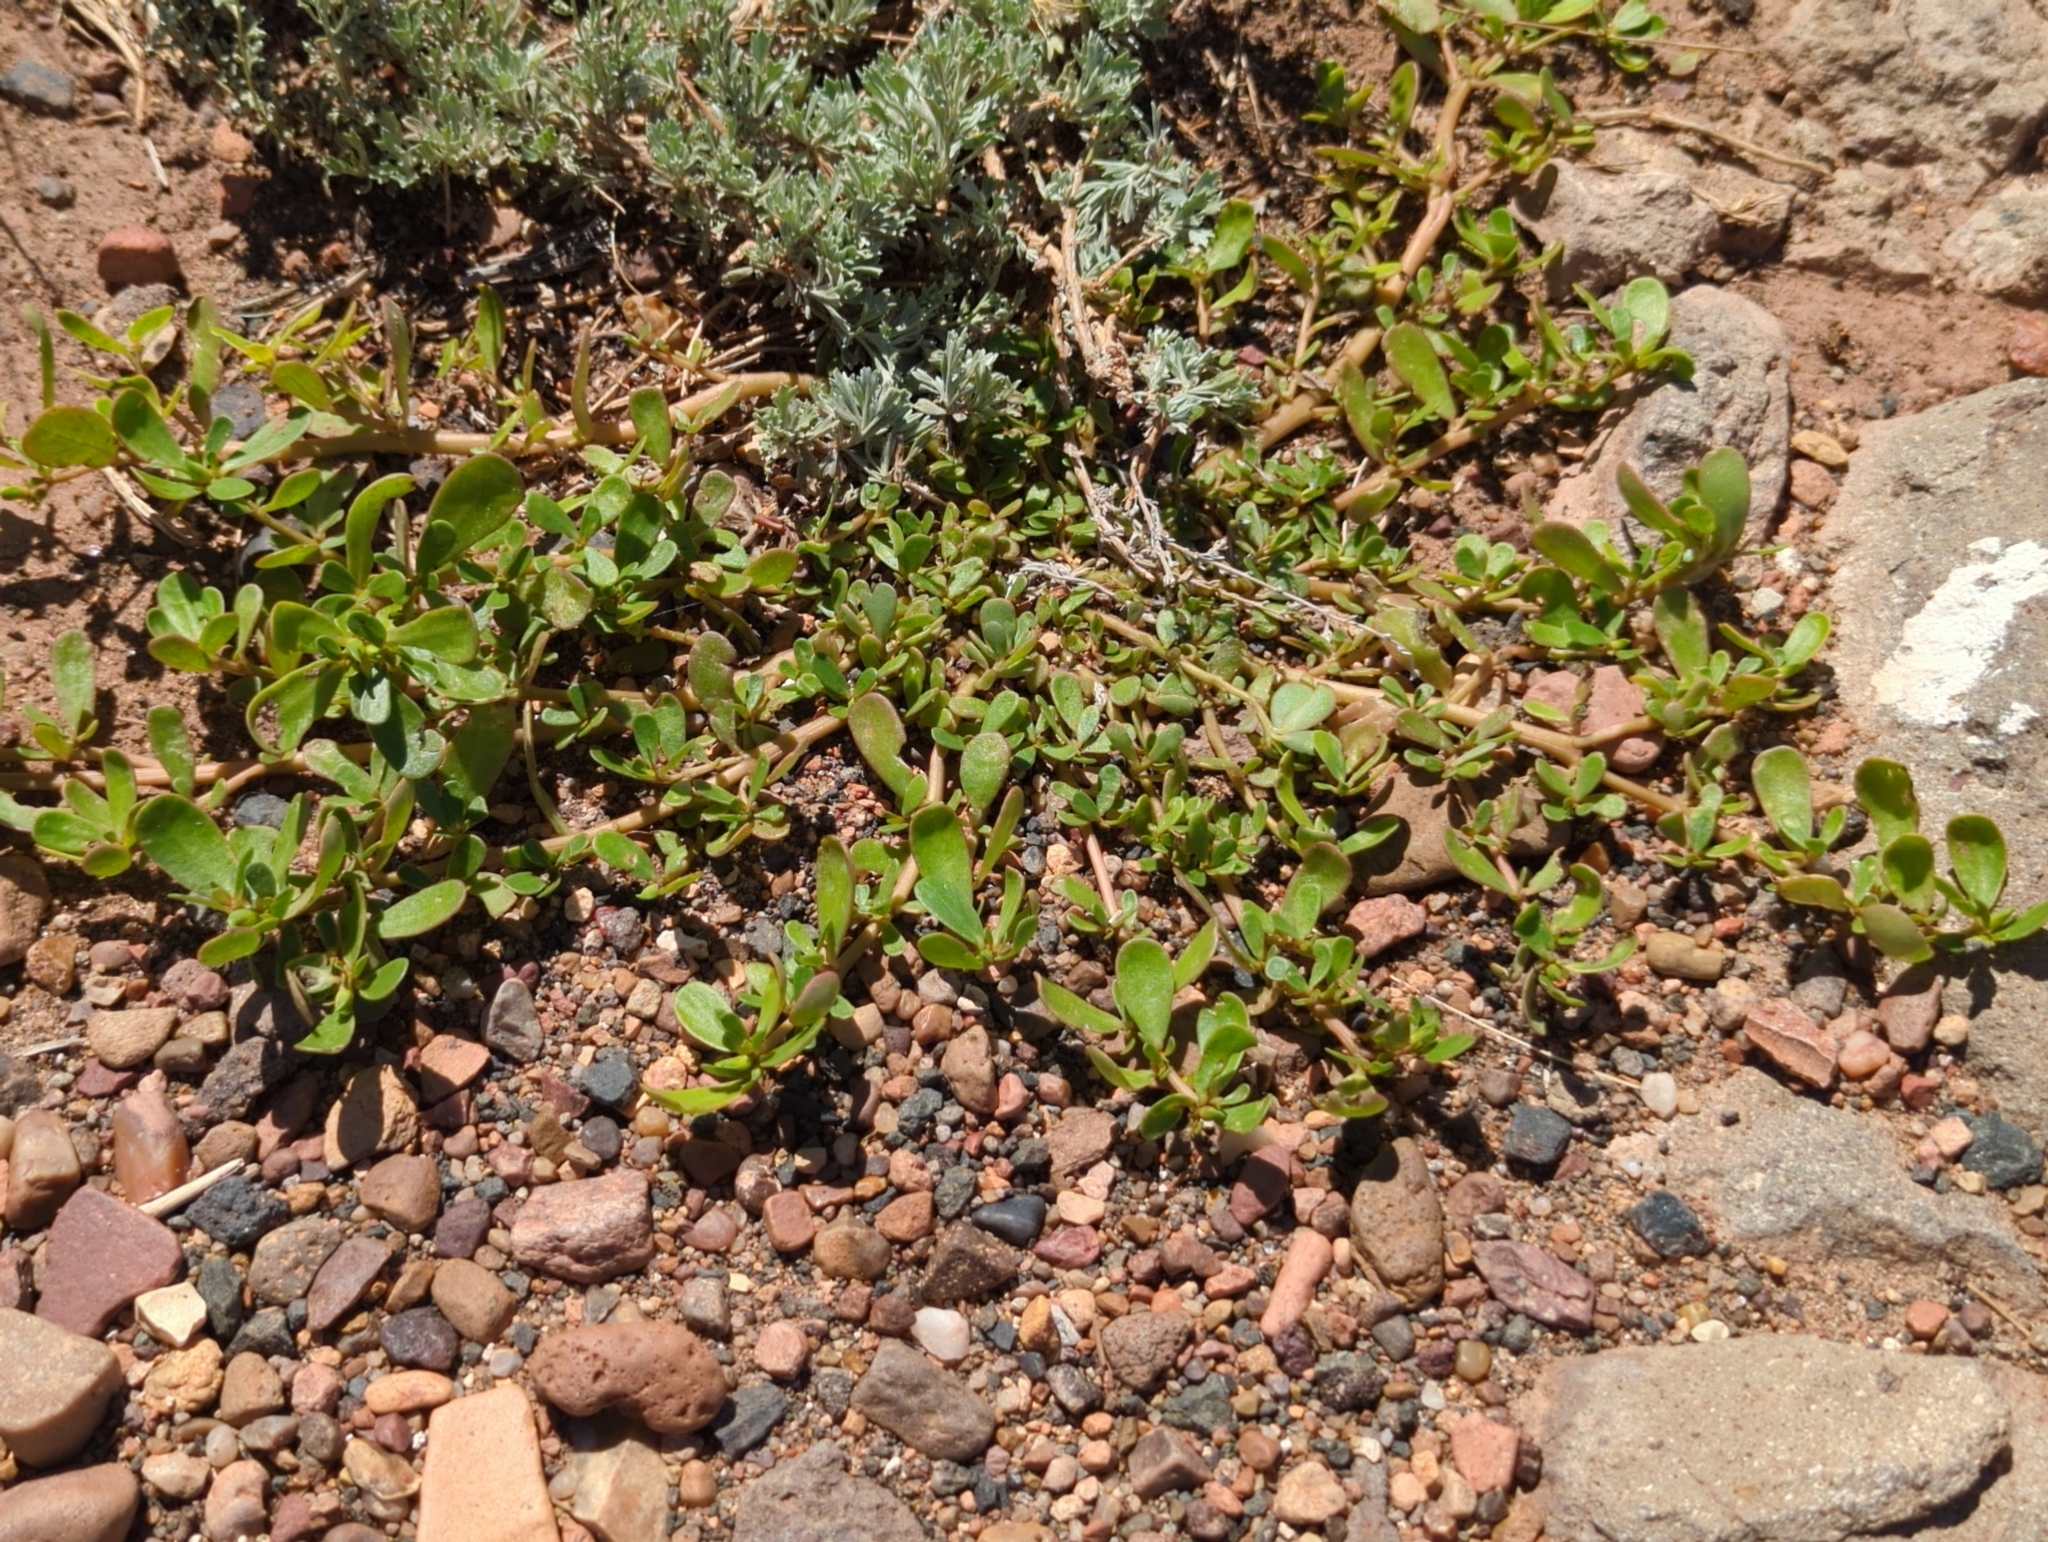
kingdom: Plantae
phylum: Tracheophyta
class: Magnoliopsida
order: Caryophyllales
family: Portulacaceae
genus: Portulaca
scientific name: Portulaca oleracea
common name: Common purslane
